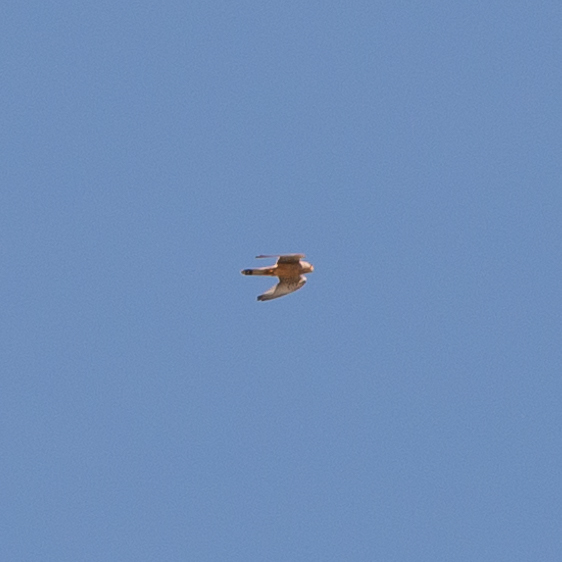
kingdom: Animalia
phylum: Chordata
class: Aves
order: Falconiformes
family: Falconidae
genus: Falco
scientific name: Falco tinnunculus
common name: Common kestrel
